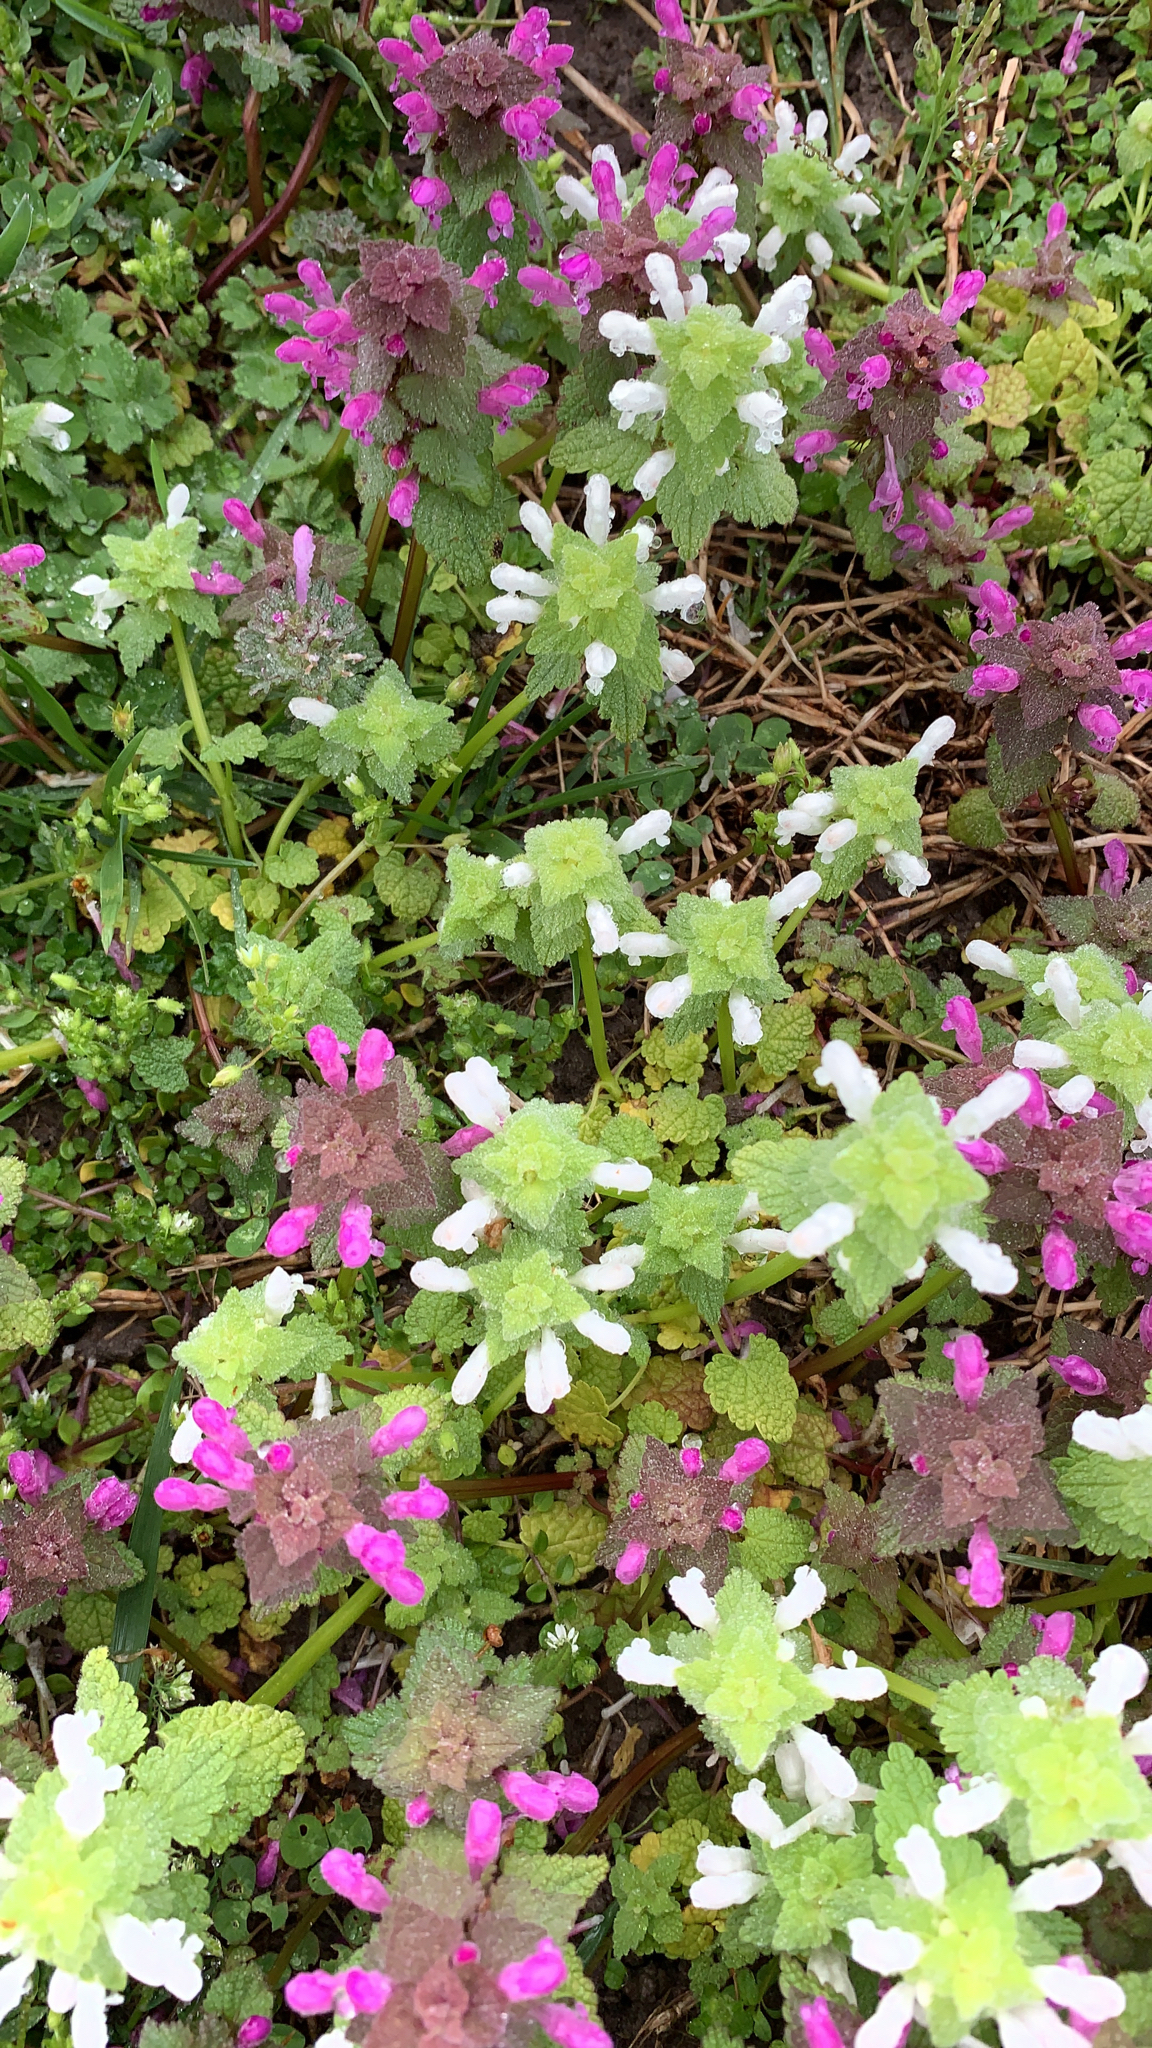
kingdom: Plantae
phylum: Tracheophyta
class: Magnoliopsida
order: Lamiales
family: Lamiaceae
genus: Lamium
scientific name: Lamium purpureum
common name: Red dead-nettle
